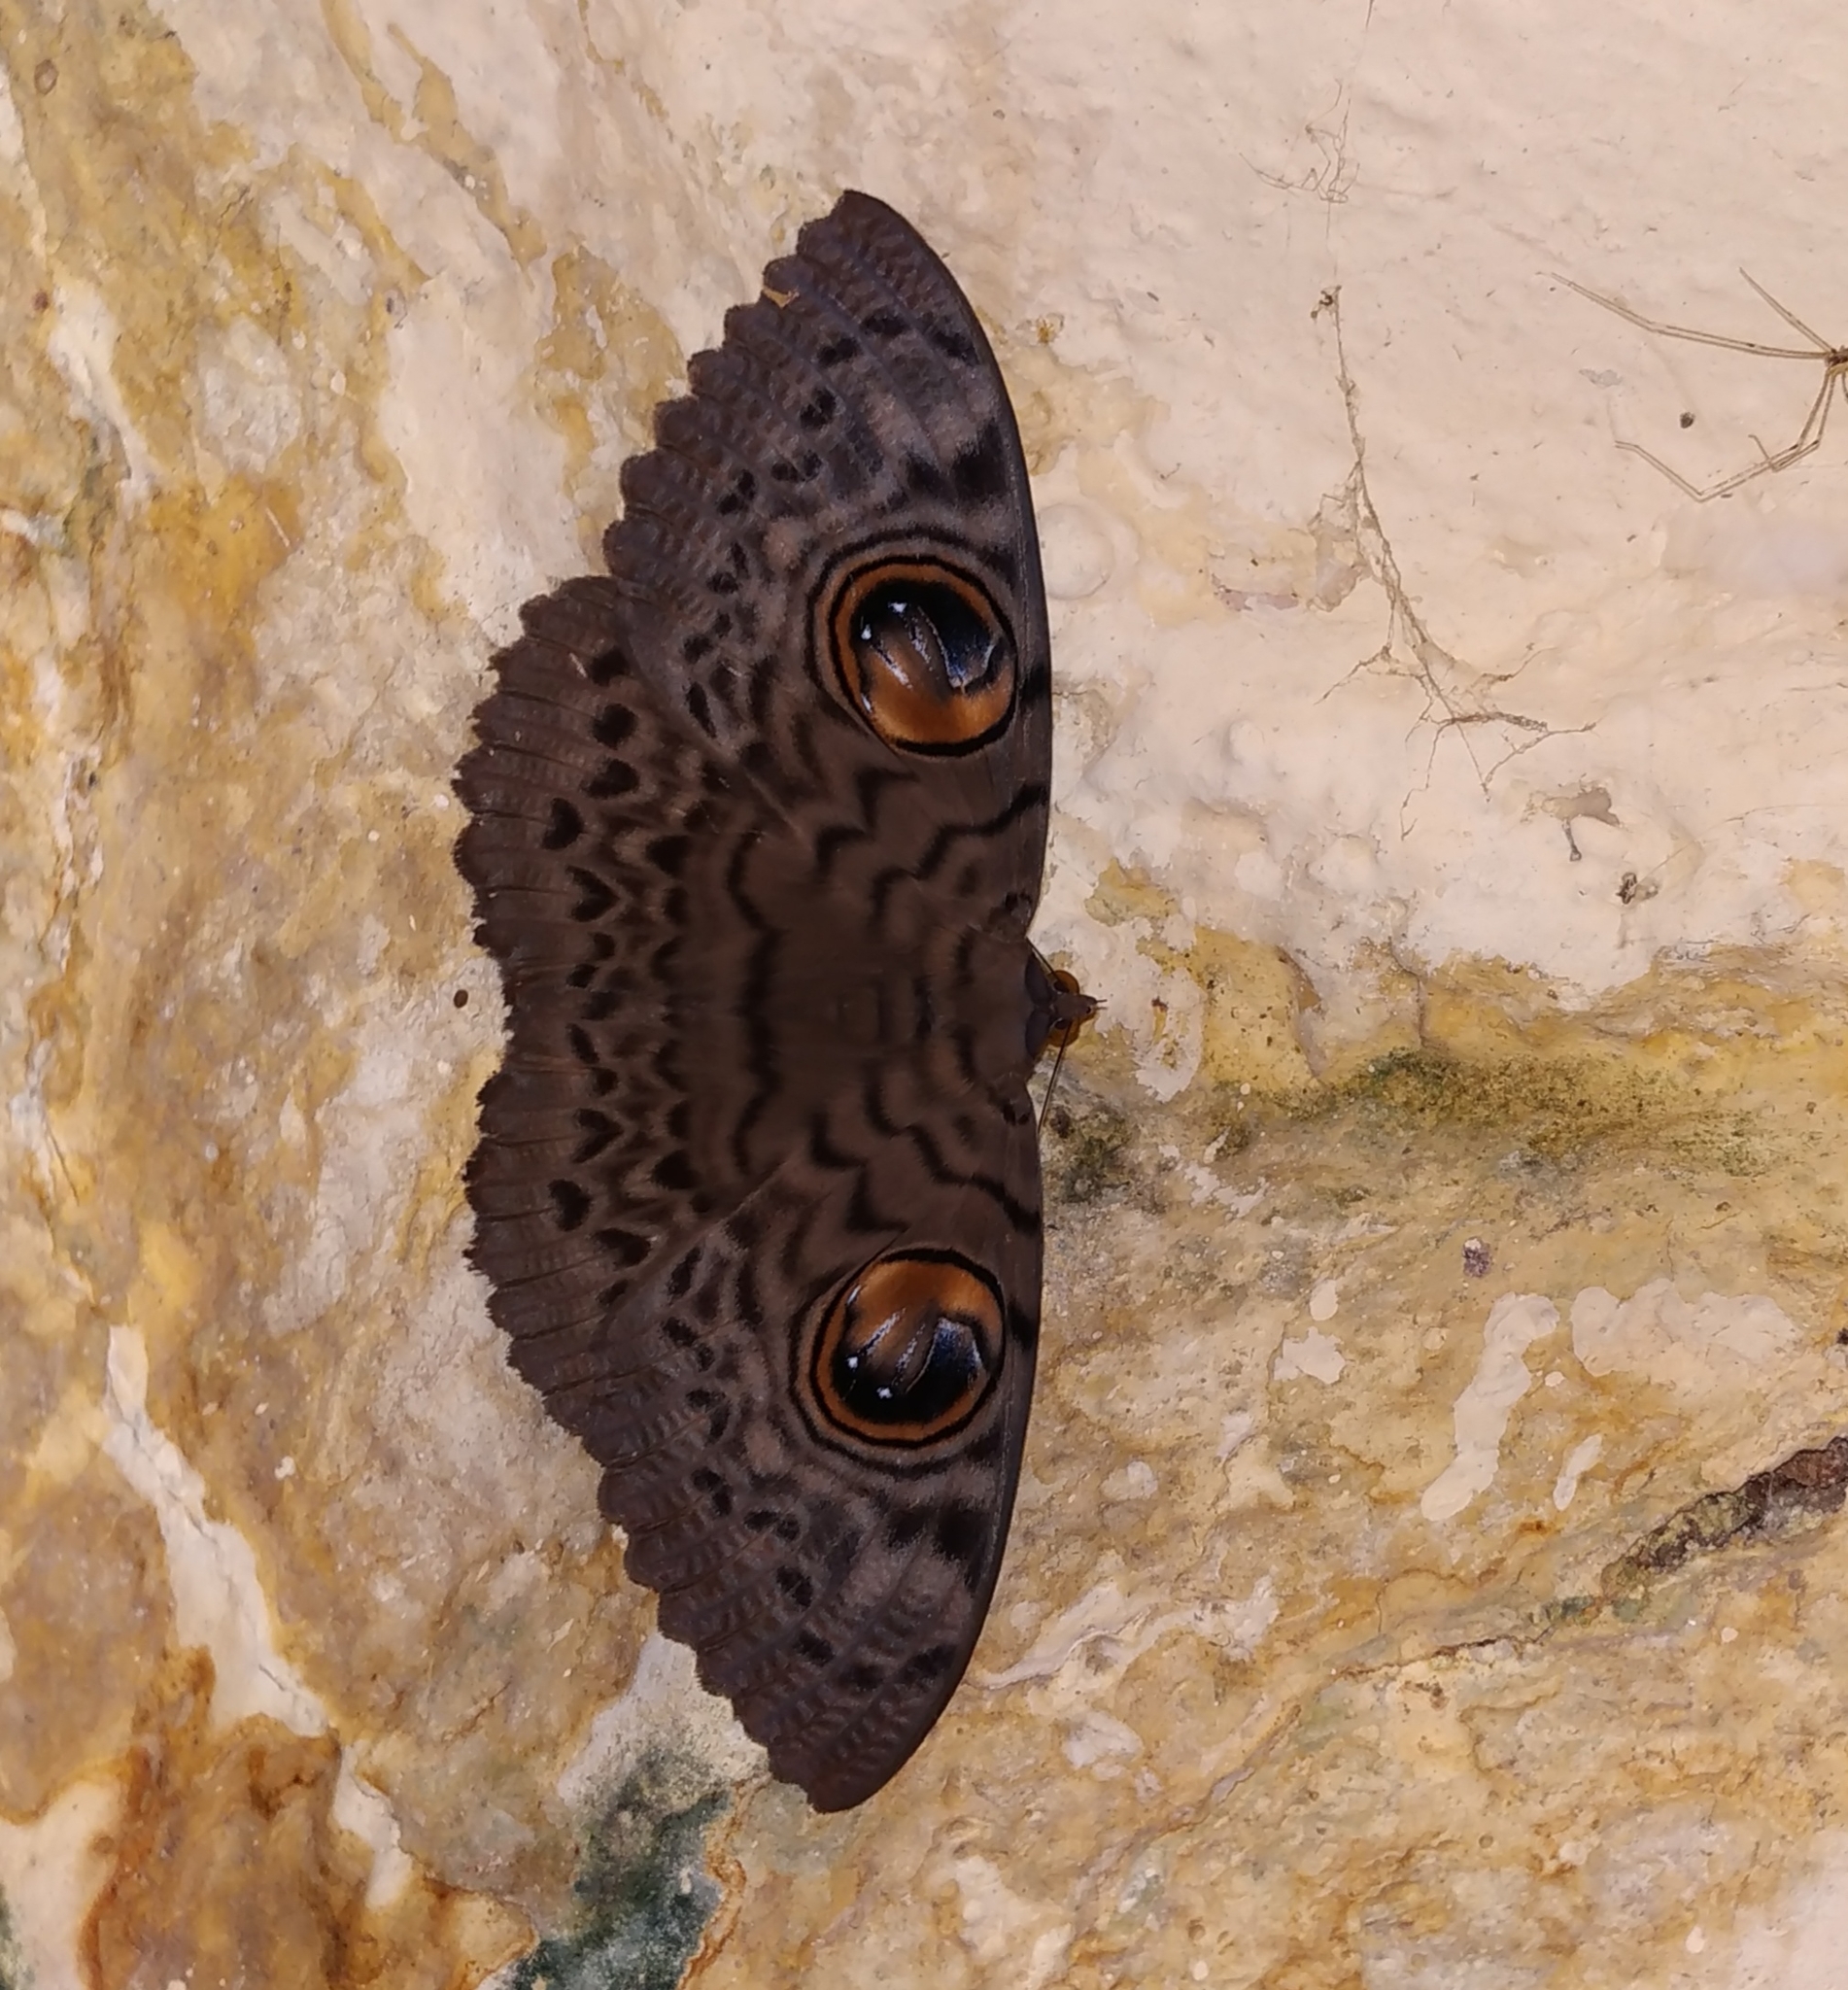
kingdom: Animalia
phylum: Arthropoda
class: Insecta
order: Lepidoptera
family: Erebidae
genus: Erebus
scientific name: Erebus macrops
